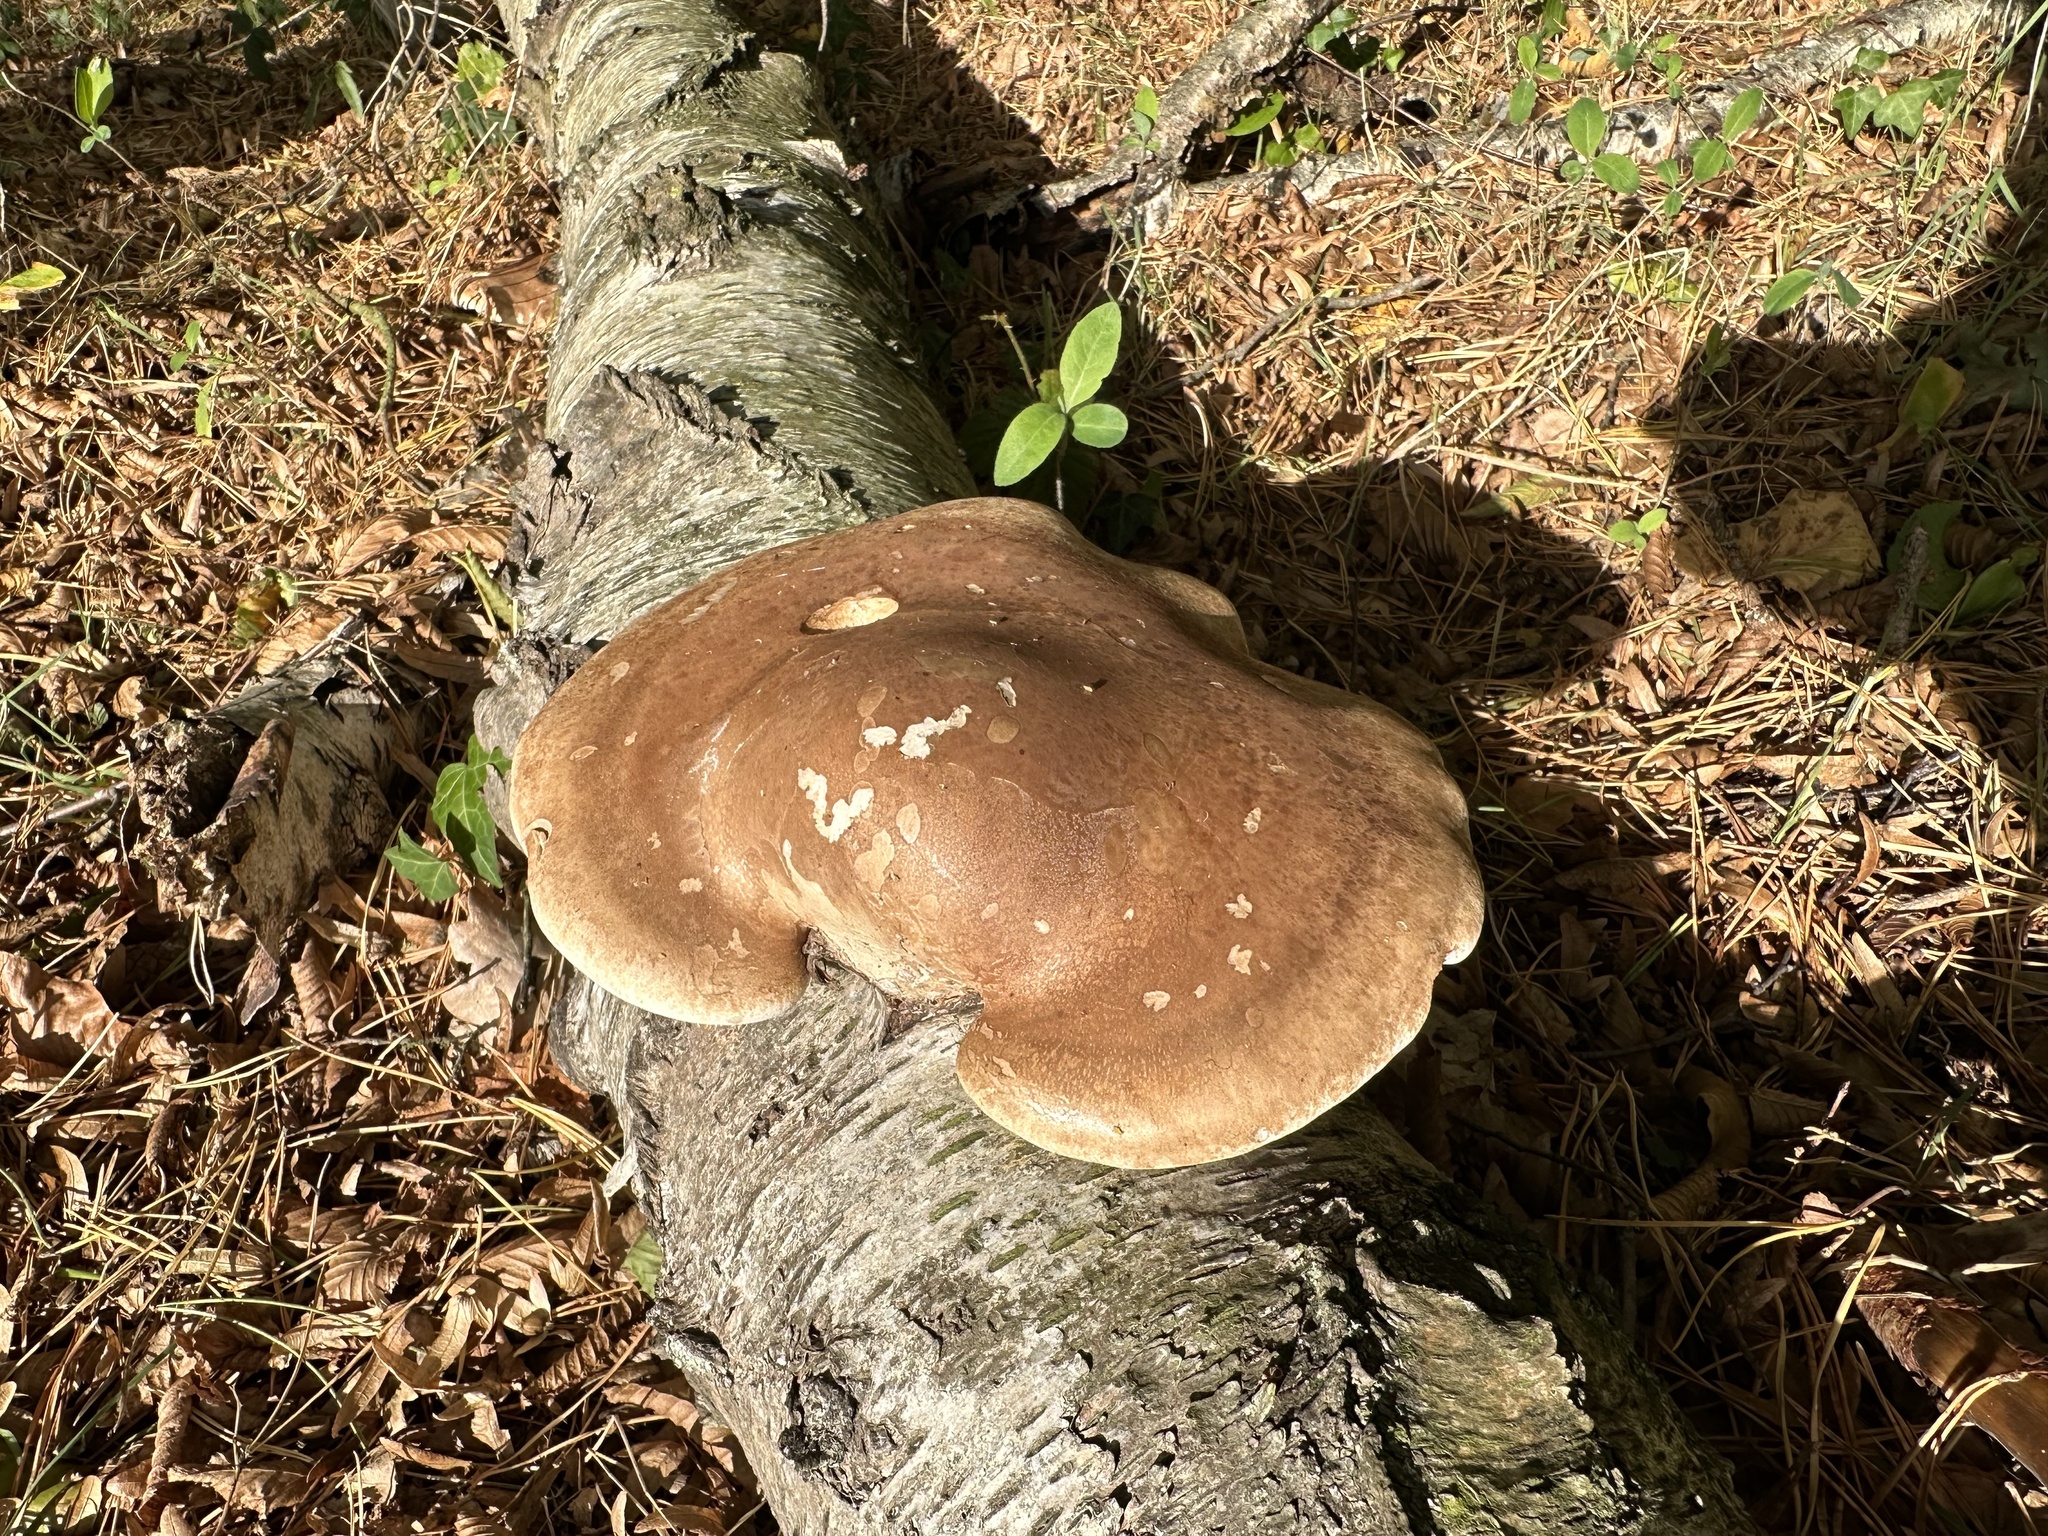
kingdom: Fungi
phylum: Basidiomycota
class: Agaricomycetes
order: Polyporales
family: Fomitopsidaceae
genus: Fomitopsis
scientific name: Fomitopsis betulina
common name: Birch polypore
